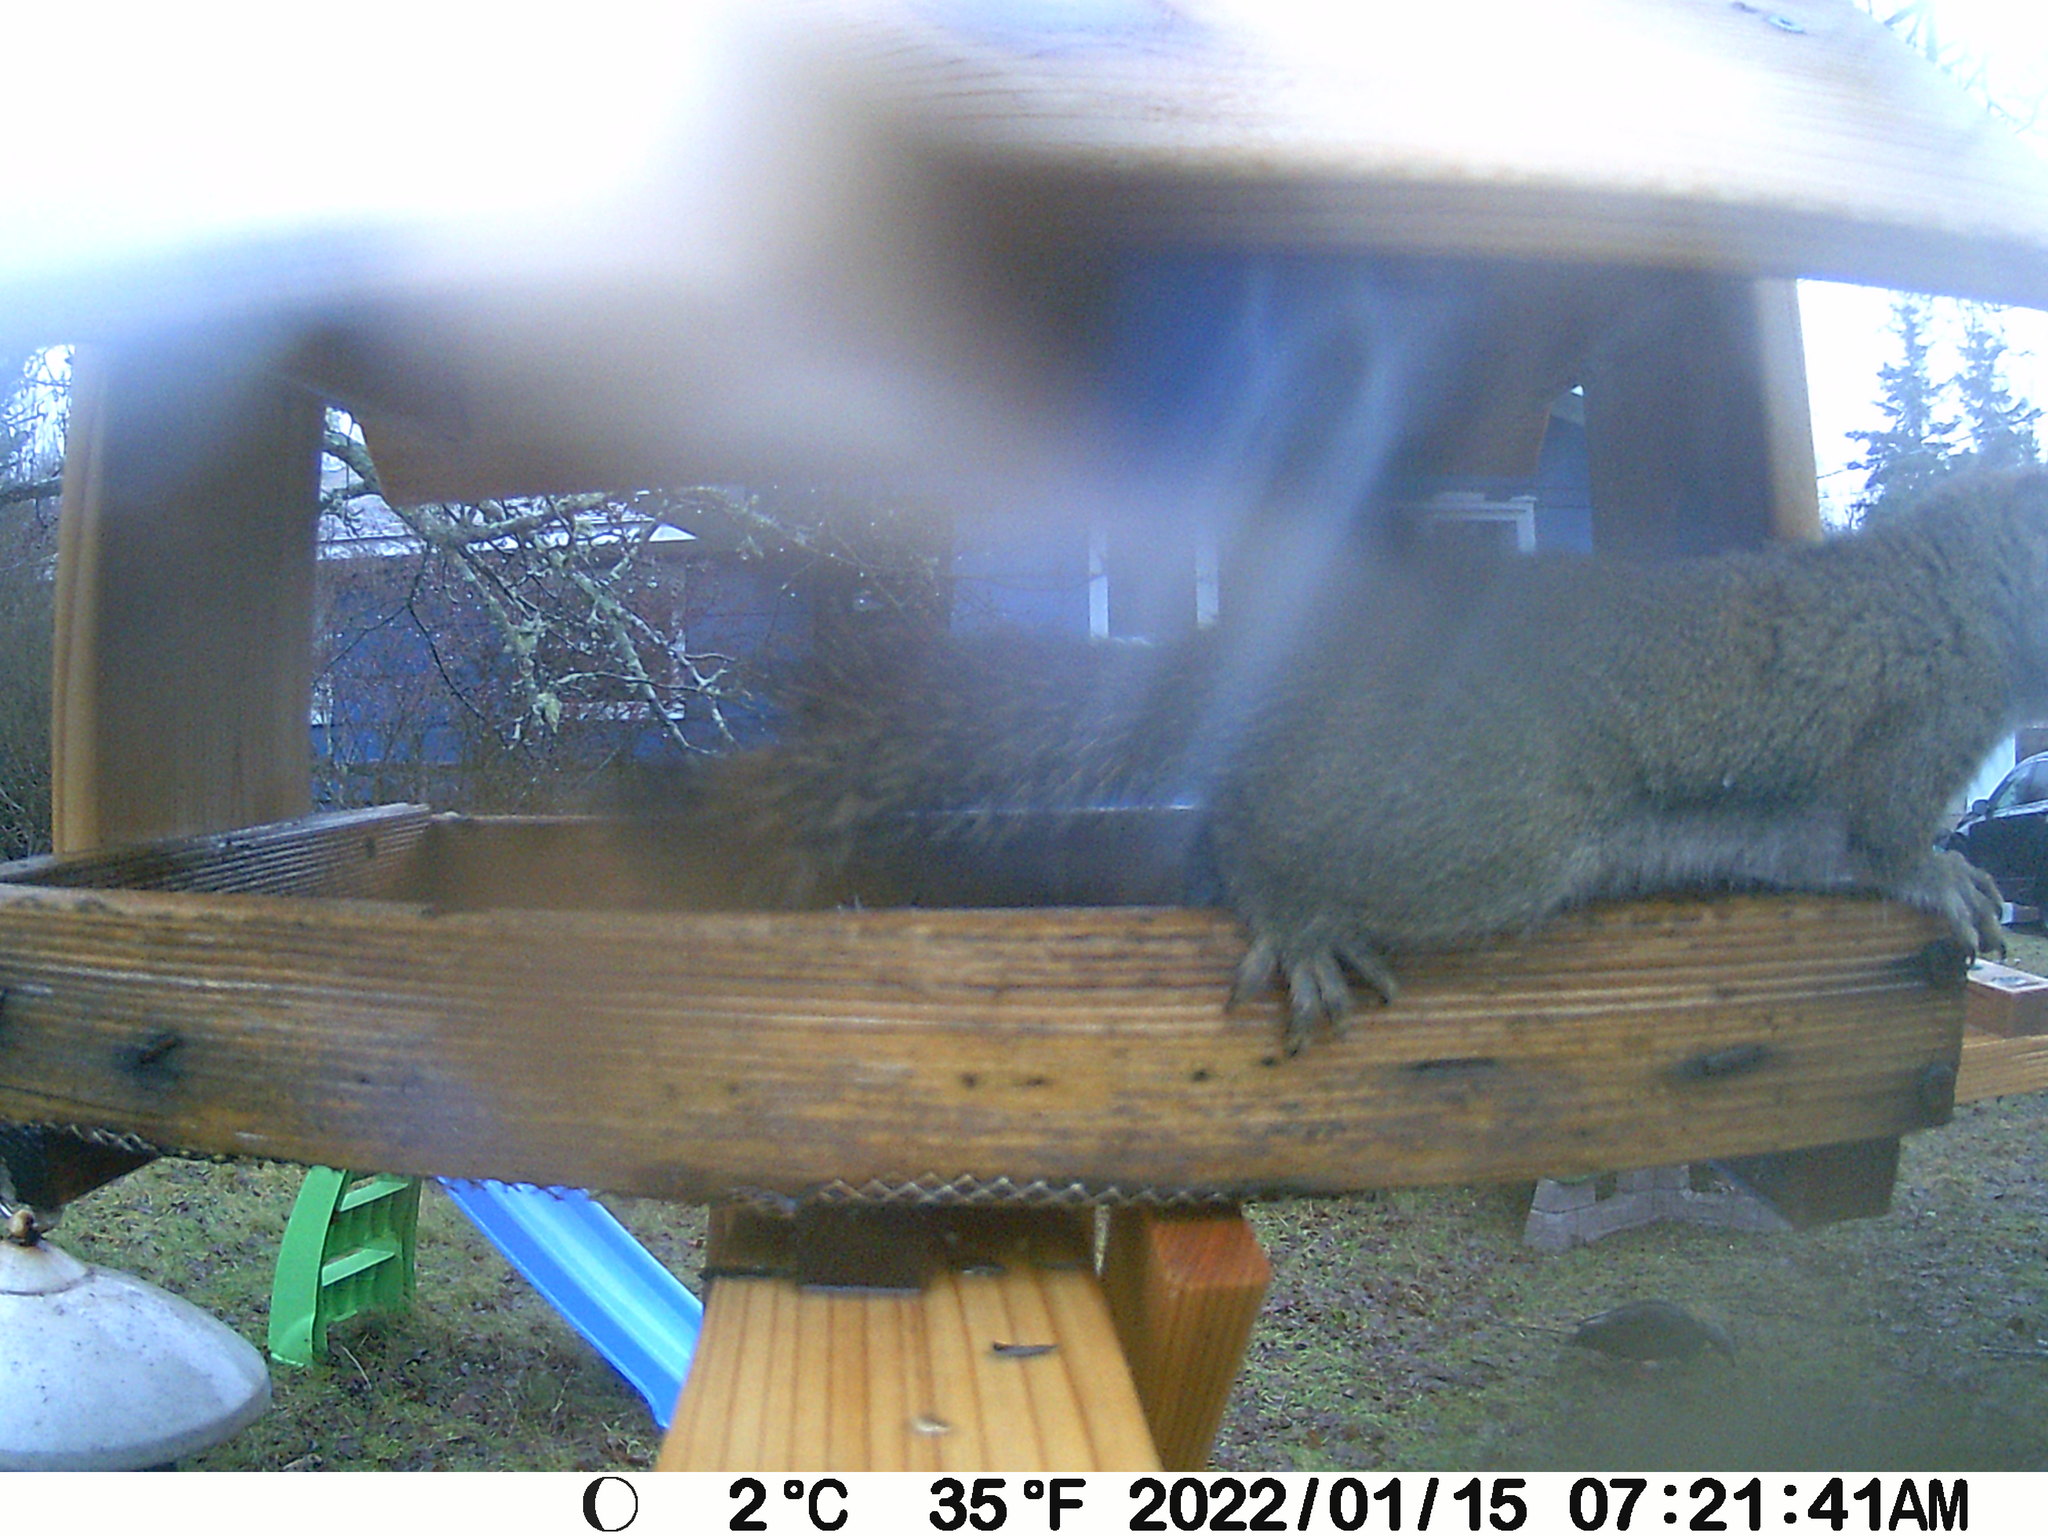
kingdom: Animalia
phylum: Chordata
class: Mammalia
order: Rodentia
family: Sciuridae
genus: Tamiasciurus
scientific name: Tamiasciurus hudsonicus
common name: Red squirrel
